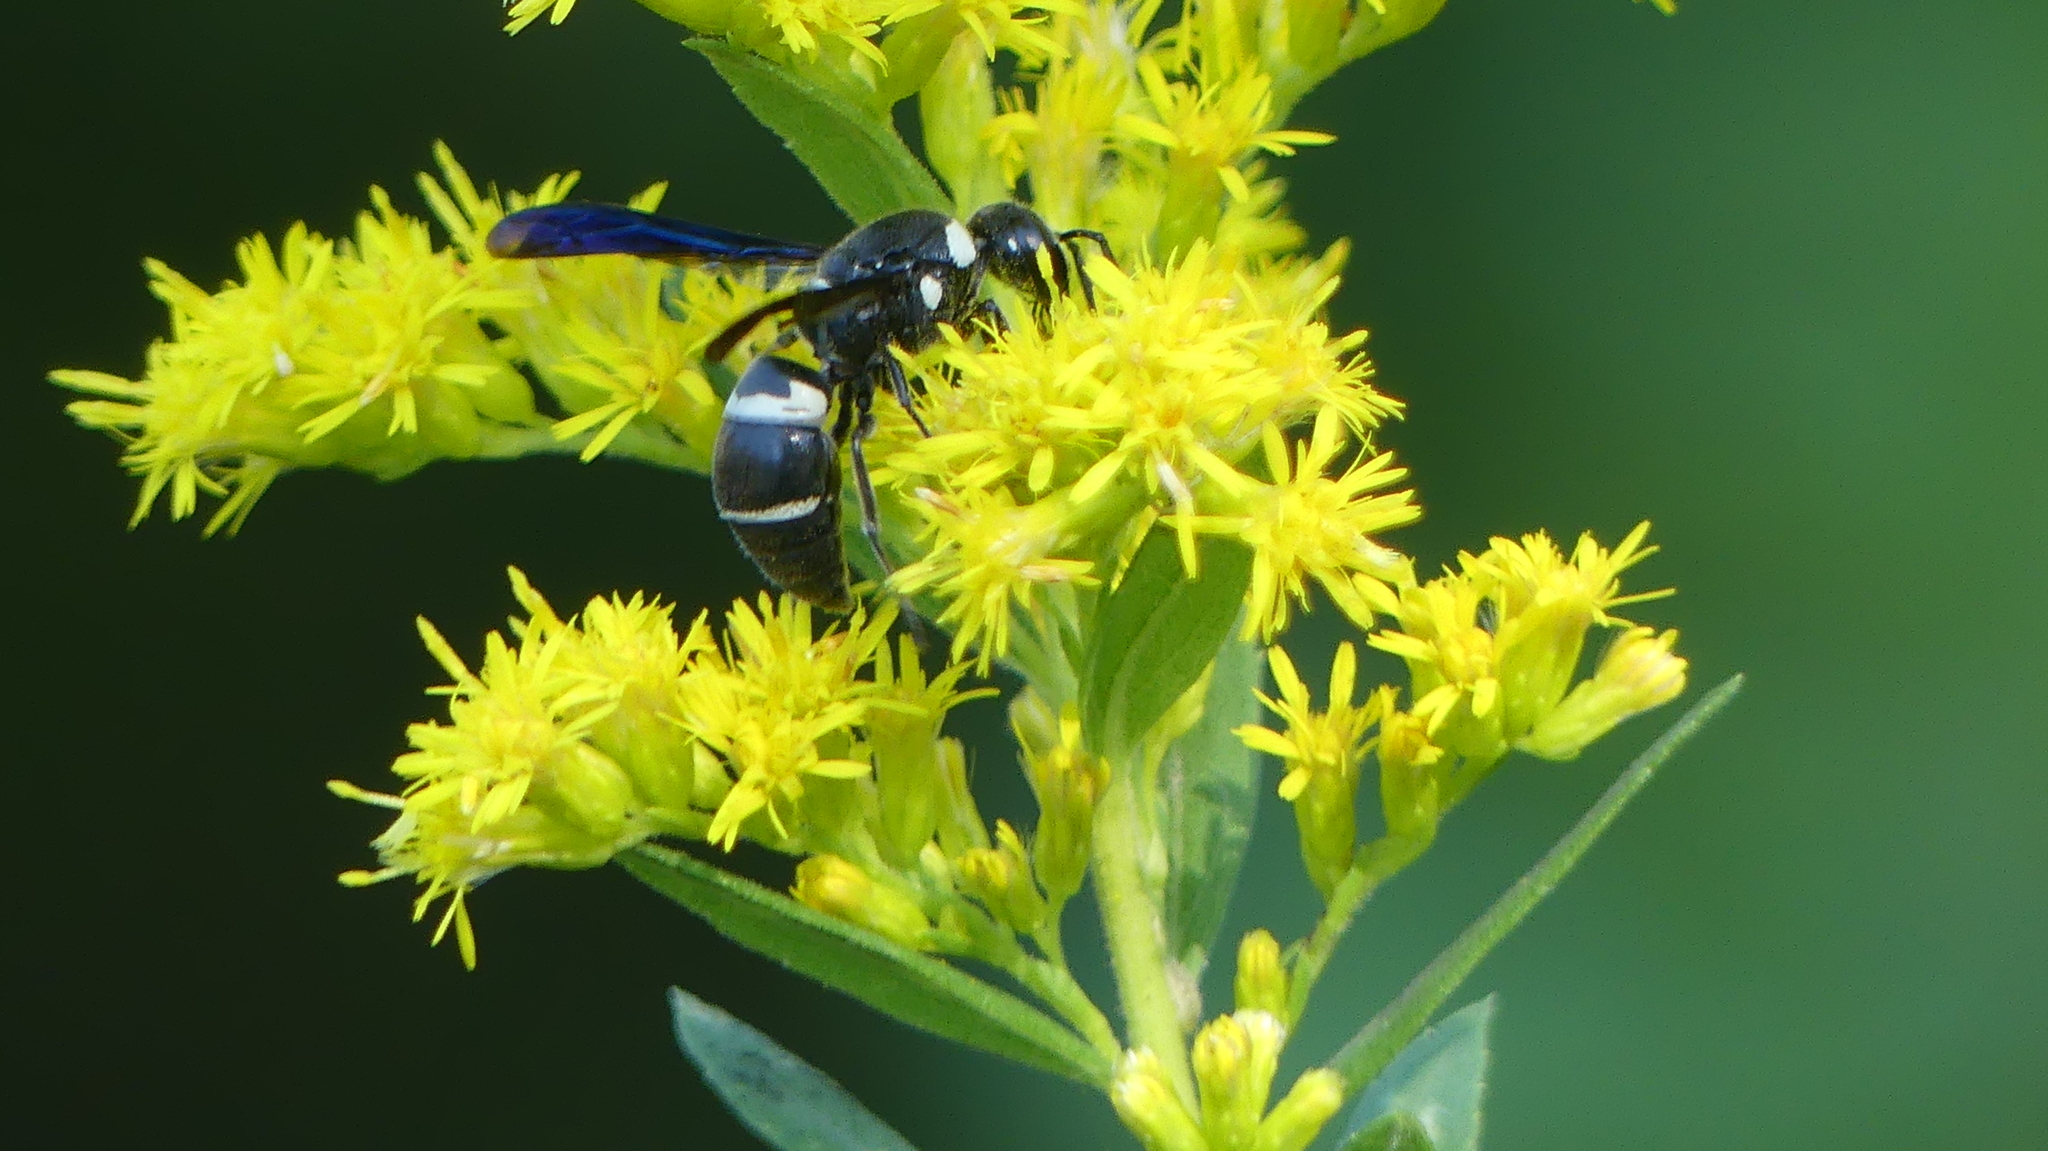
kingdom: Animalia
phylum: Arthropoda
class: Insecta
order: Hymenoptera
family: Eumenidae
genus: Euodynerus
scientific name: Euodynerus megaera
